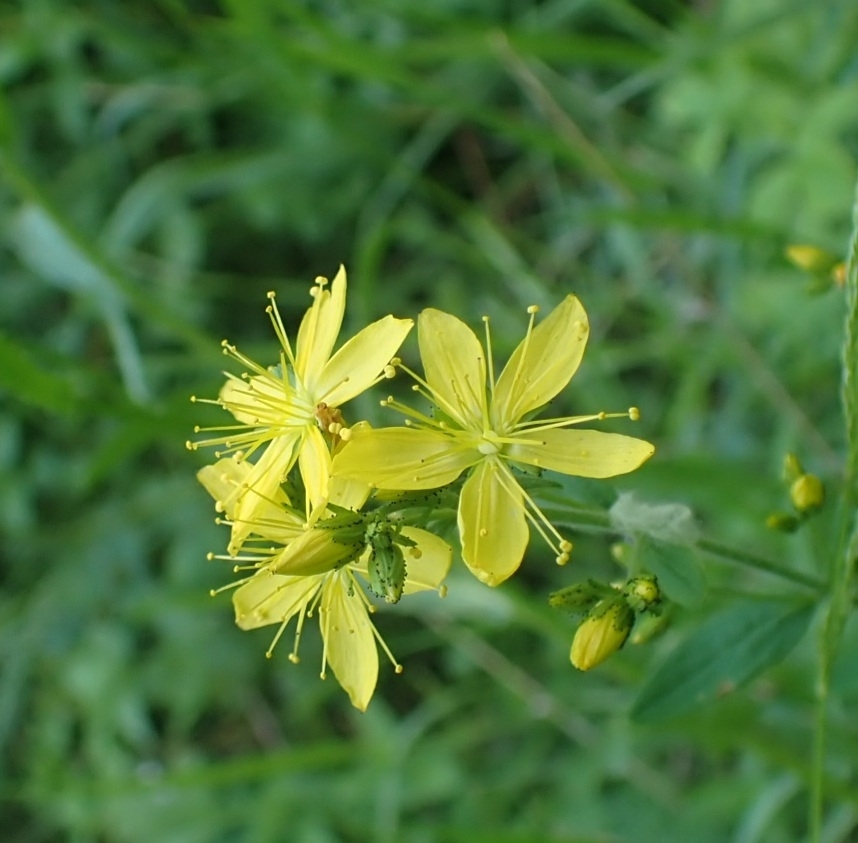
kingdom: Plantae
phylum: Tracheophyta
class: Magnoliopsida
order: Malpighiales
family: Hypericaceae
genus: Hypericum
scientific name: Hypericum hirsutum
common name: Hairy st. john's-wort
